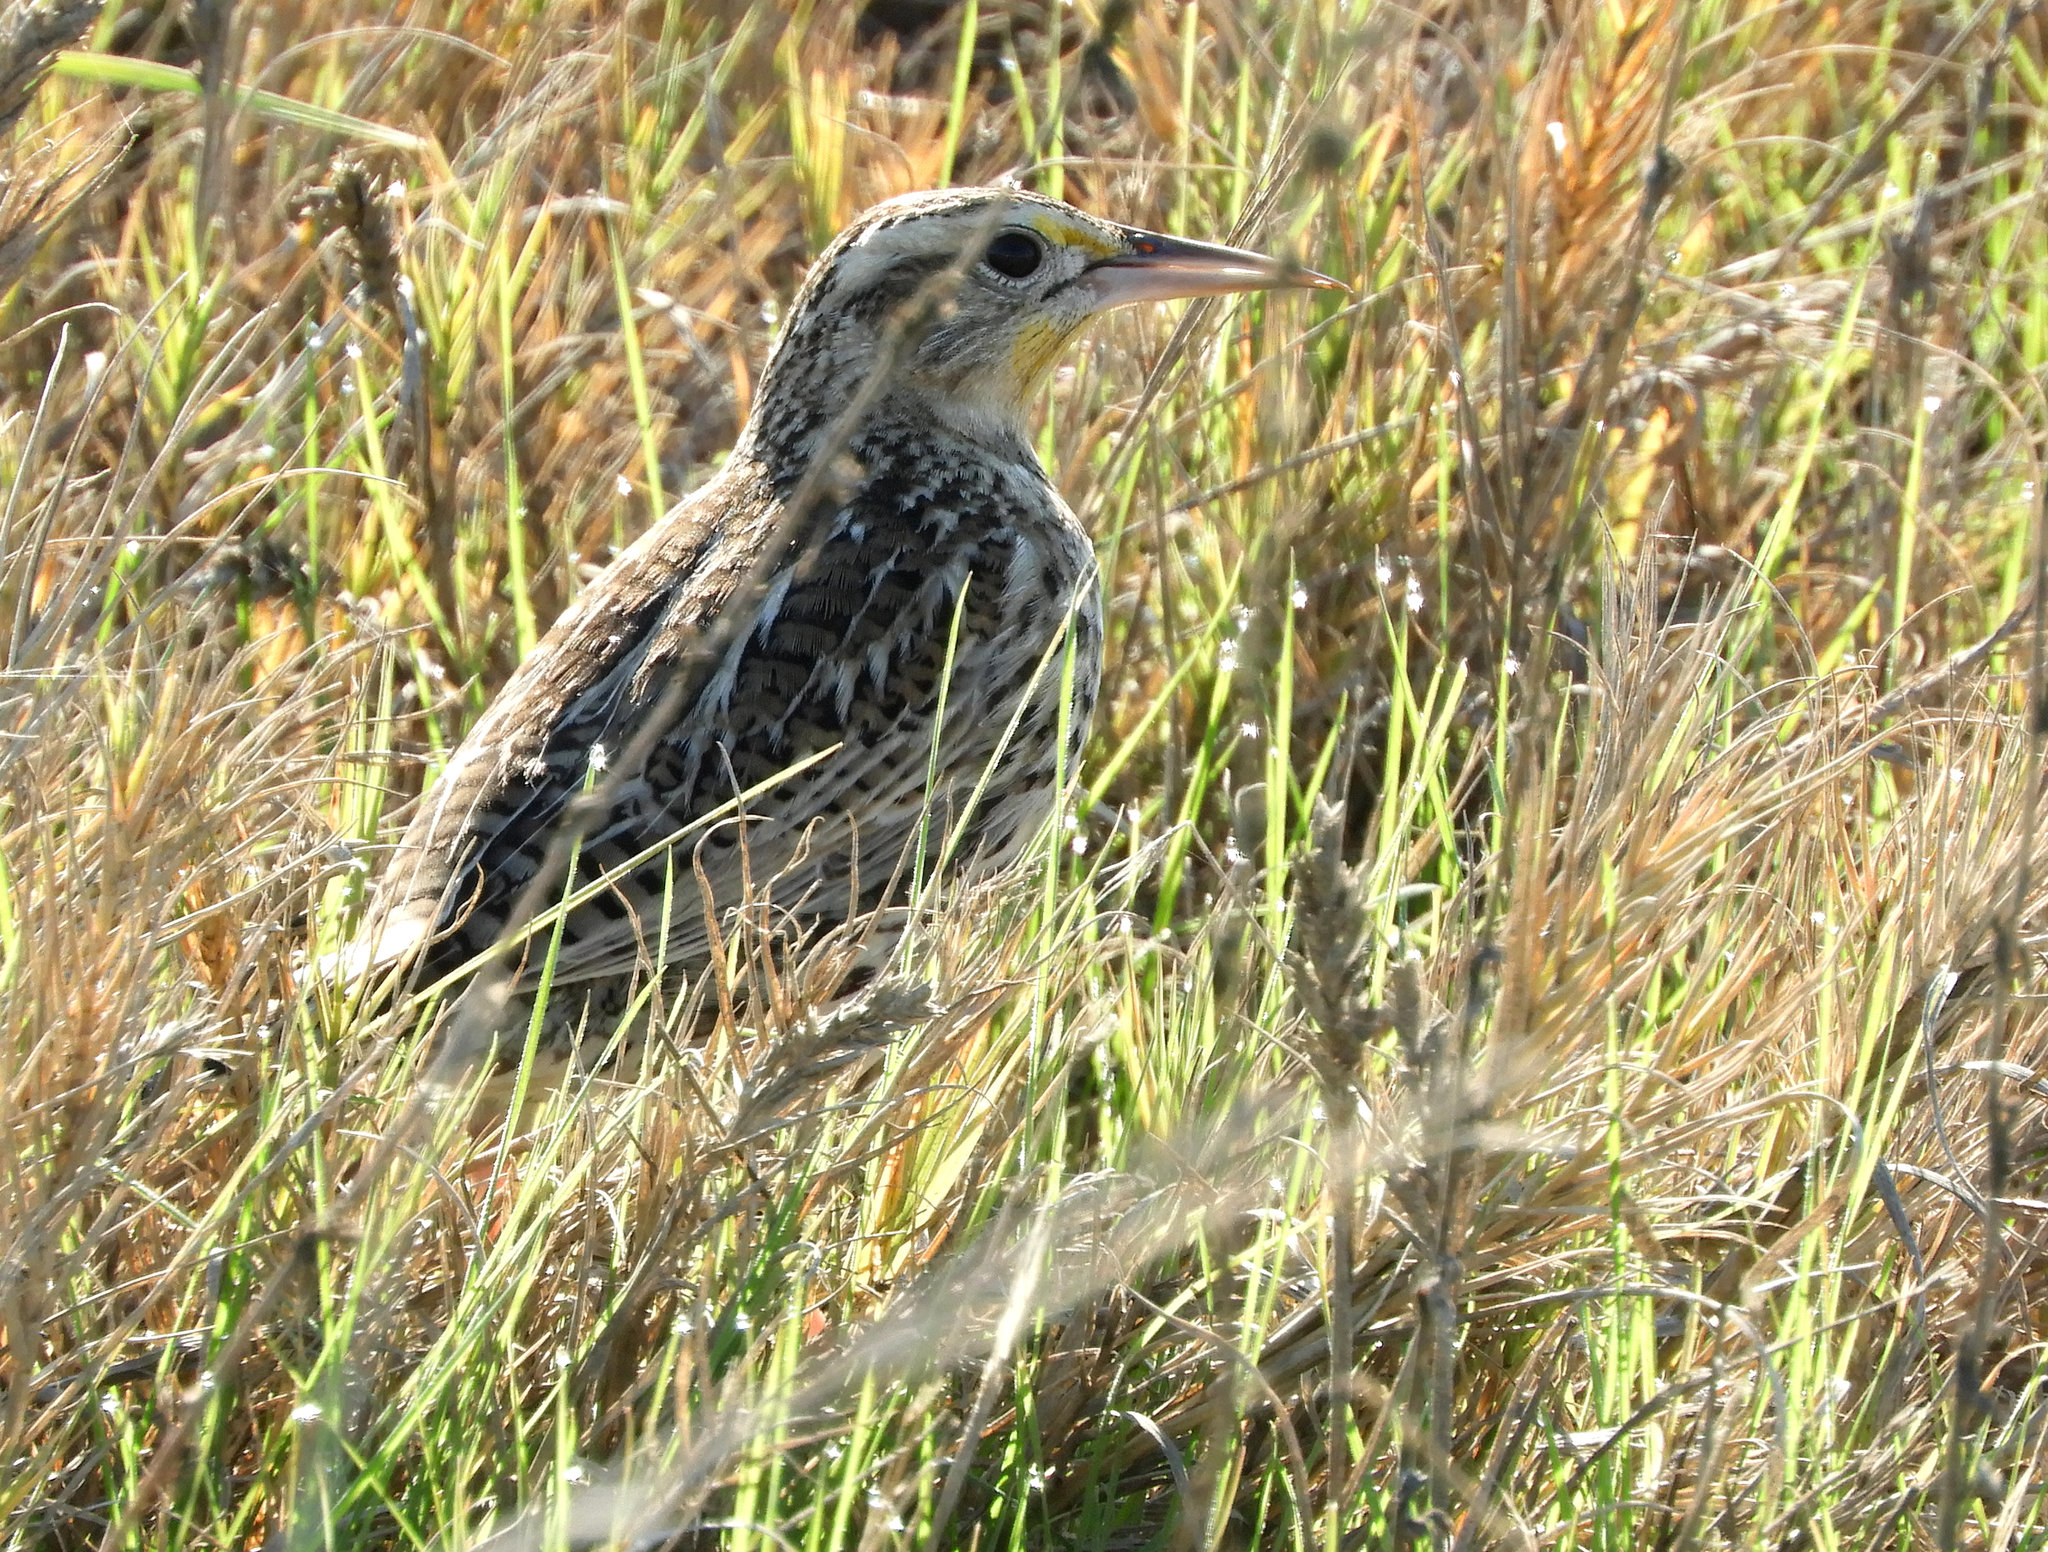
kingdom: Animalia
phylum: Chordata
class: Aves
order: Passeriformes
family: Icteridae
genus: Sturnella
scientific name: Sturnella neglecta
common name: Western meadowlark
